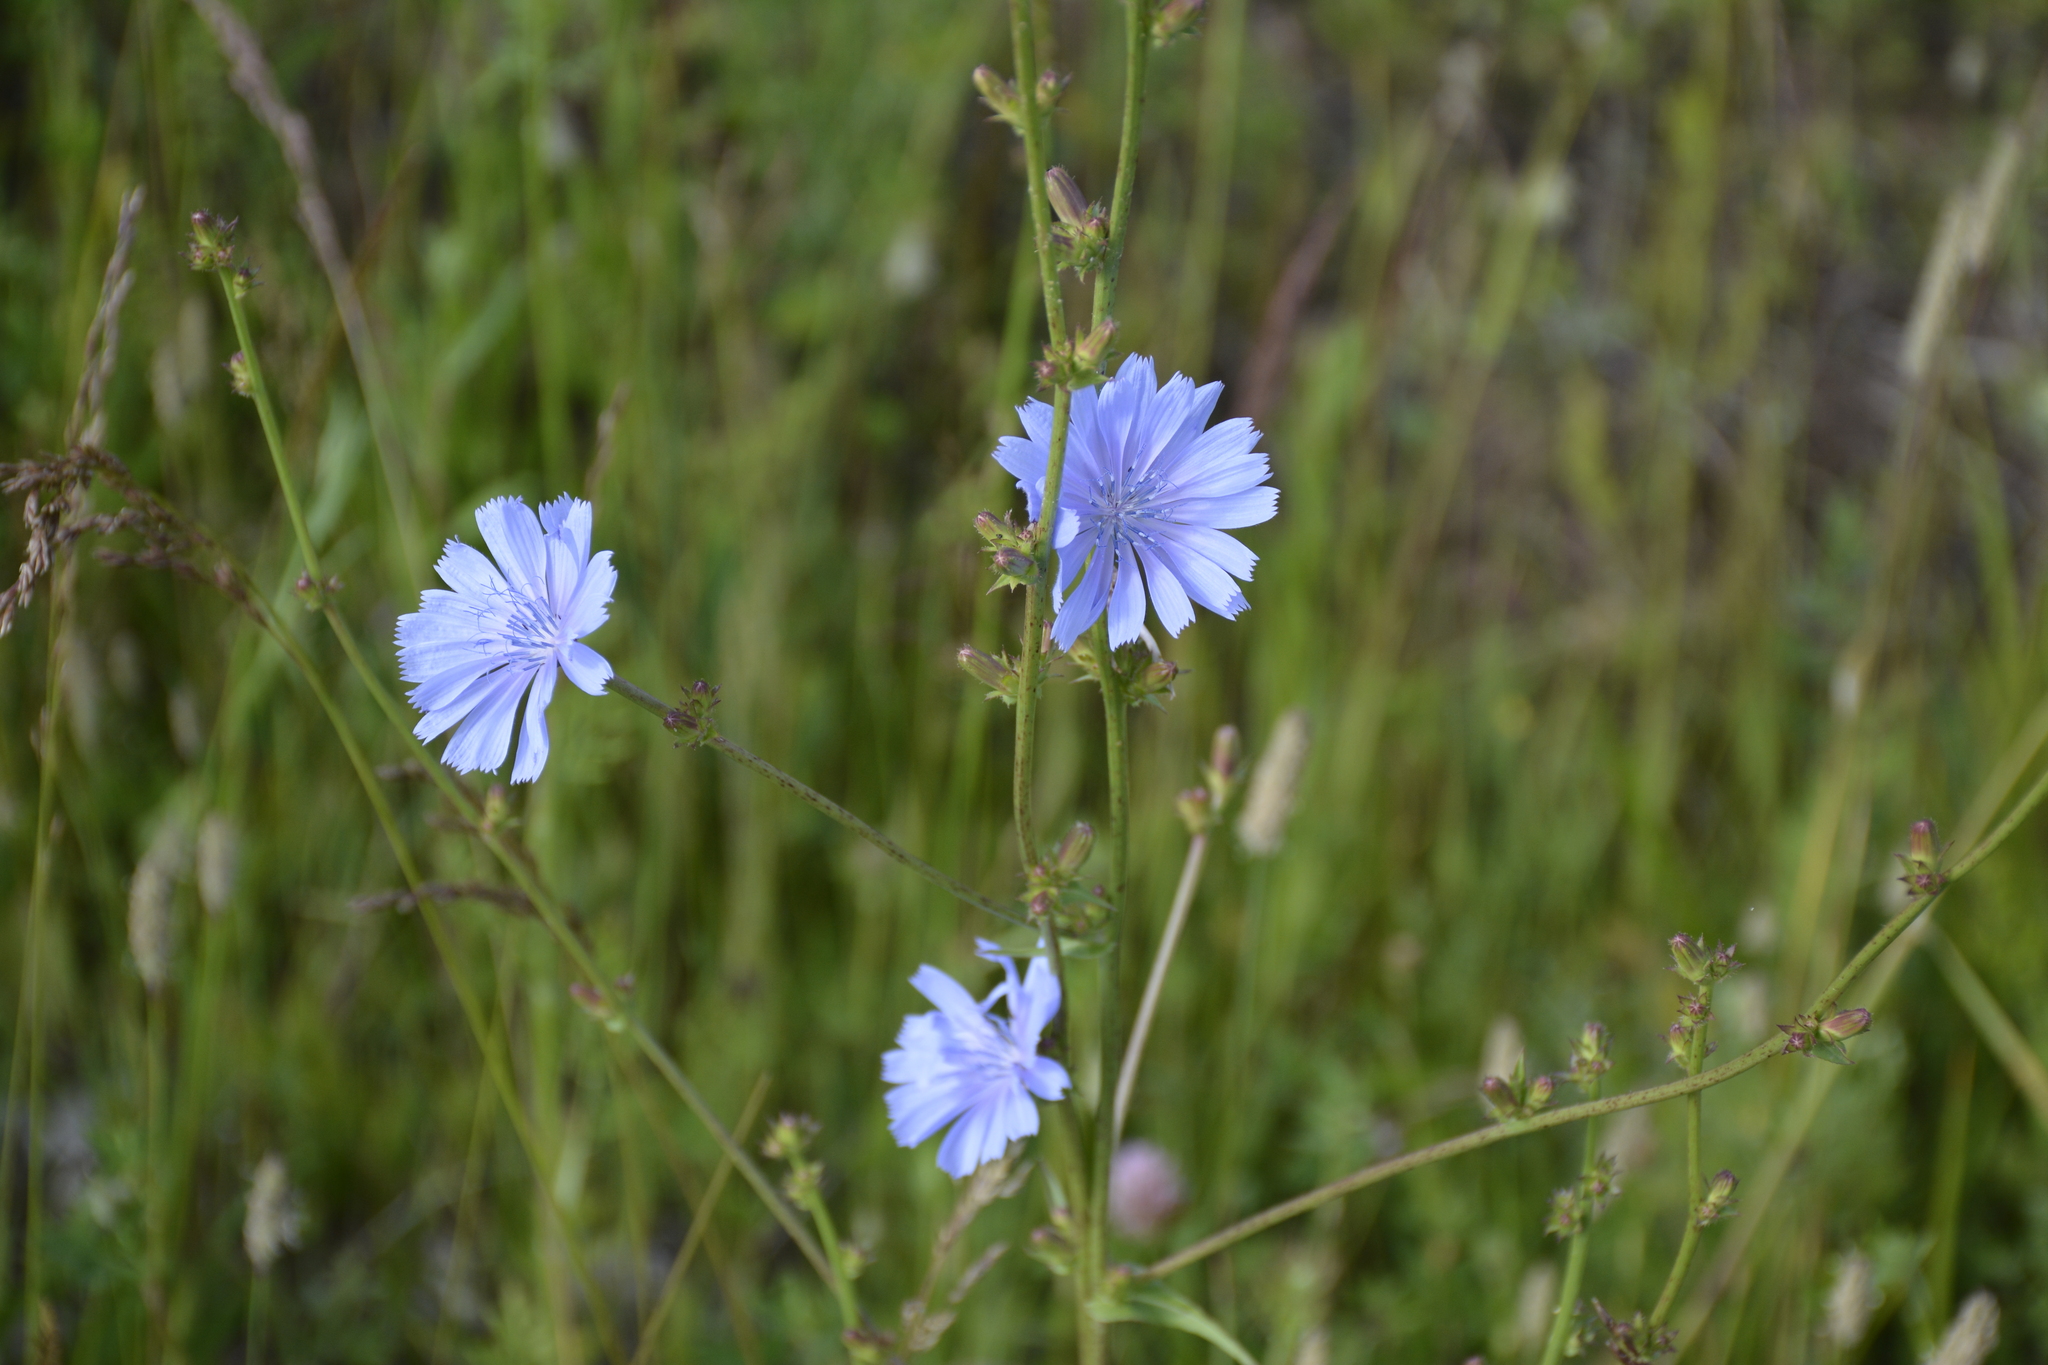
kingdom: Plantae
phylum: Tracheophyta
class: Magnoliopsida
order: Asterales
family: Asteraceae
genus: Cichorium
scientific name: Cichorium intybus
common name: Chicory
